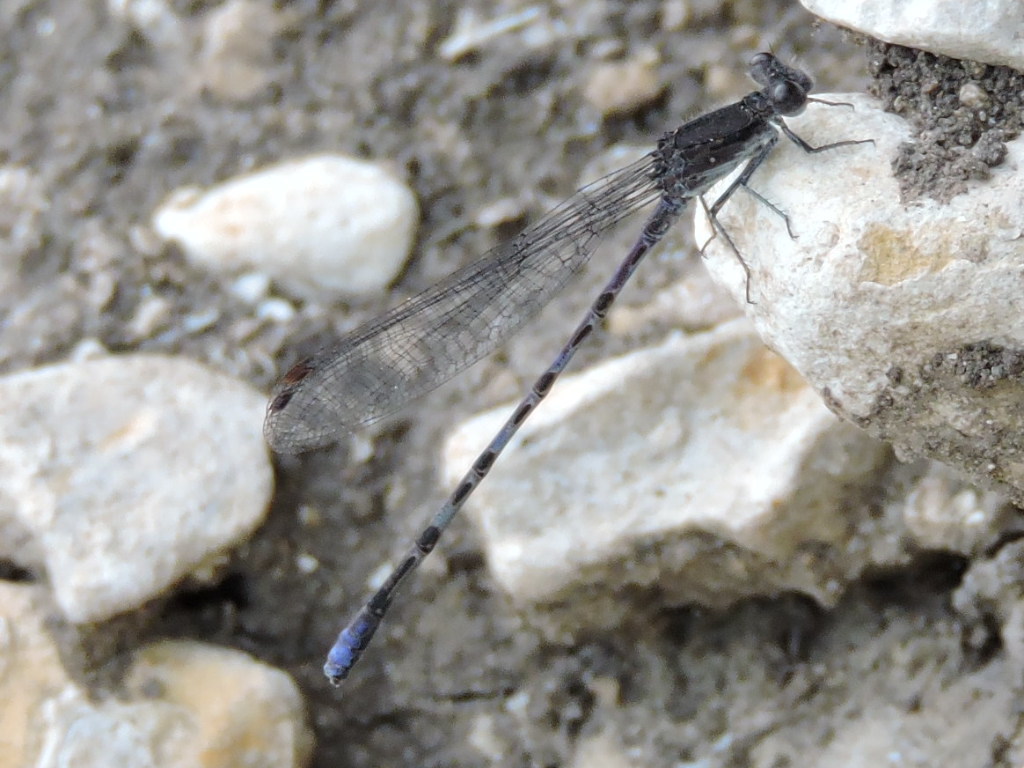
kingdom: Animalia
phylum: Arthropoda
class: Insecta
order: Odonata
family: Coenagrionidae
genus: Argia
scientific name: Argia immunda
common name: Kiowa dancer
